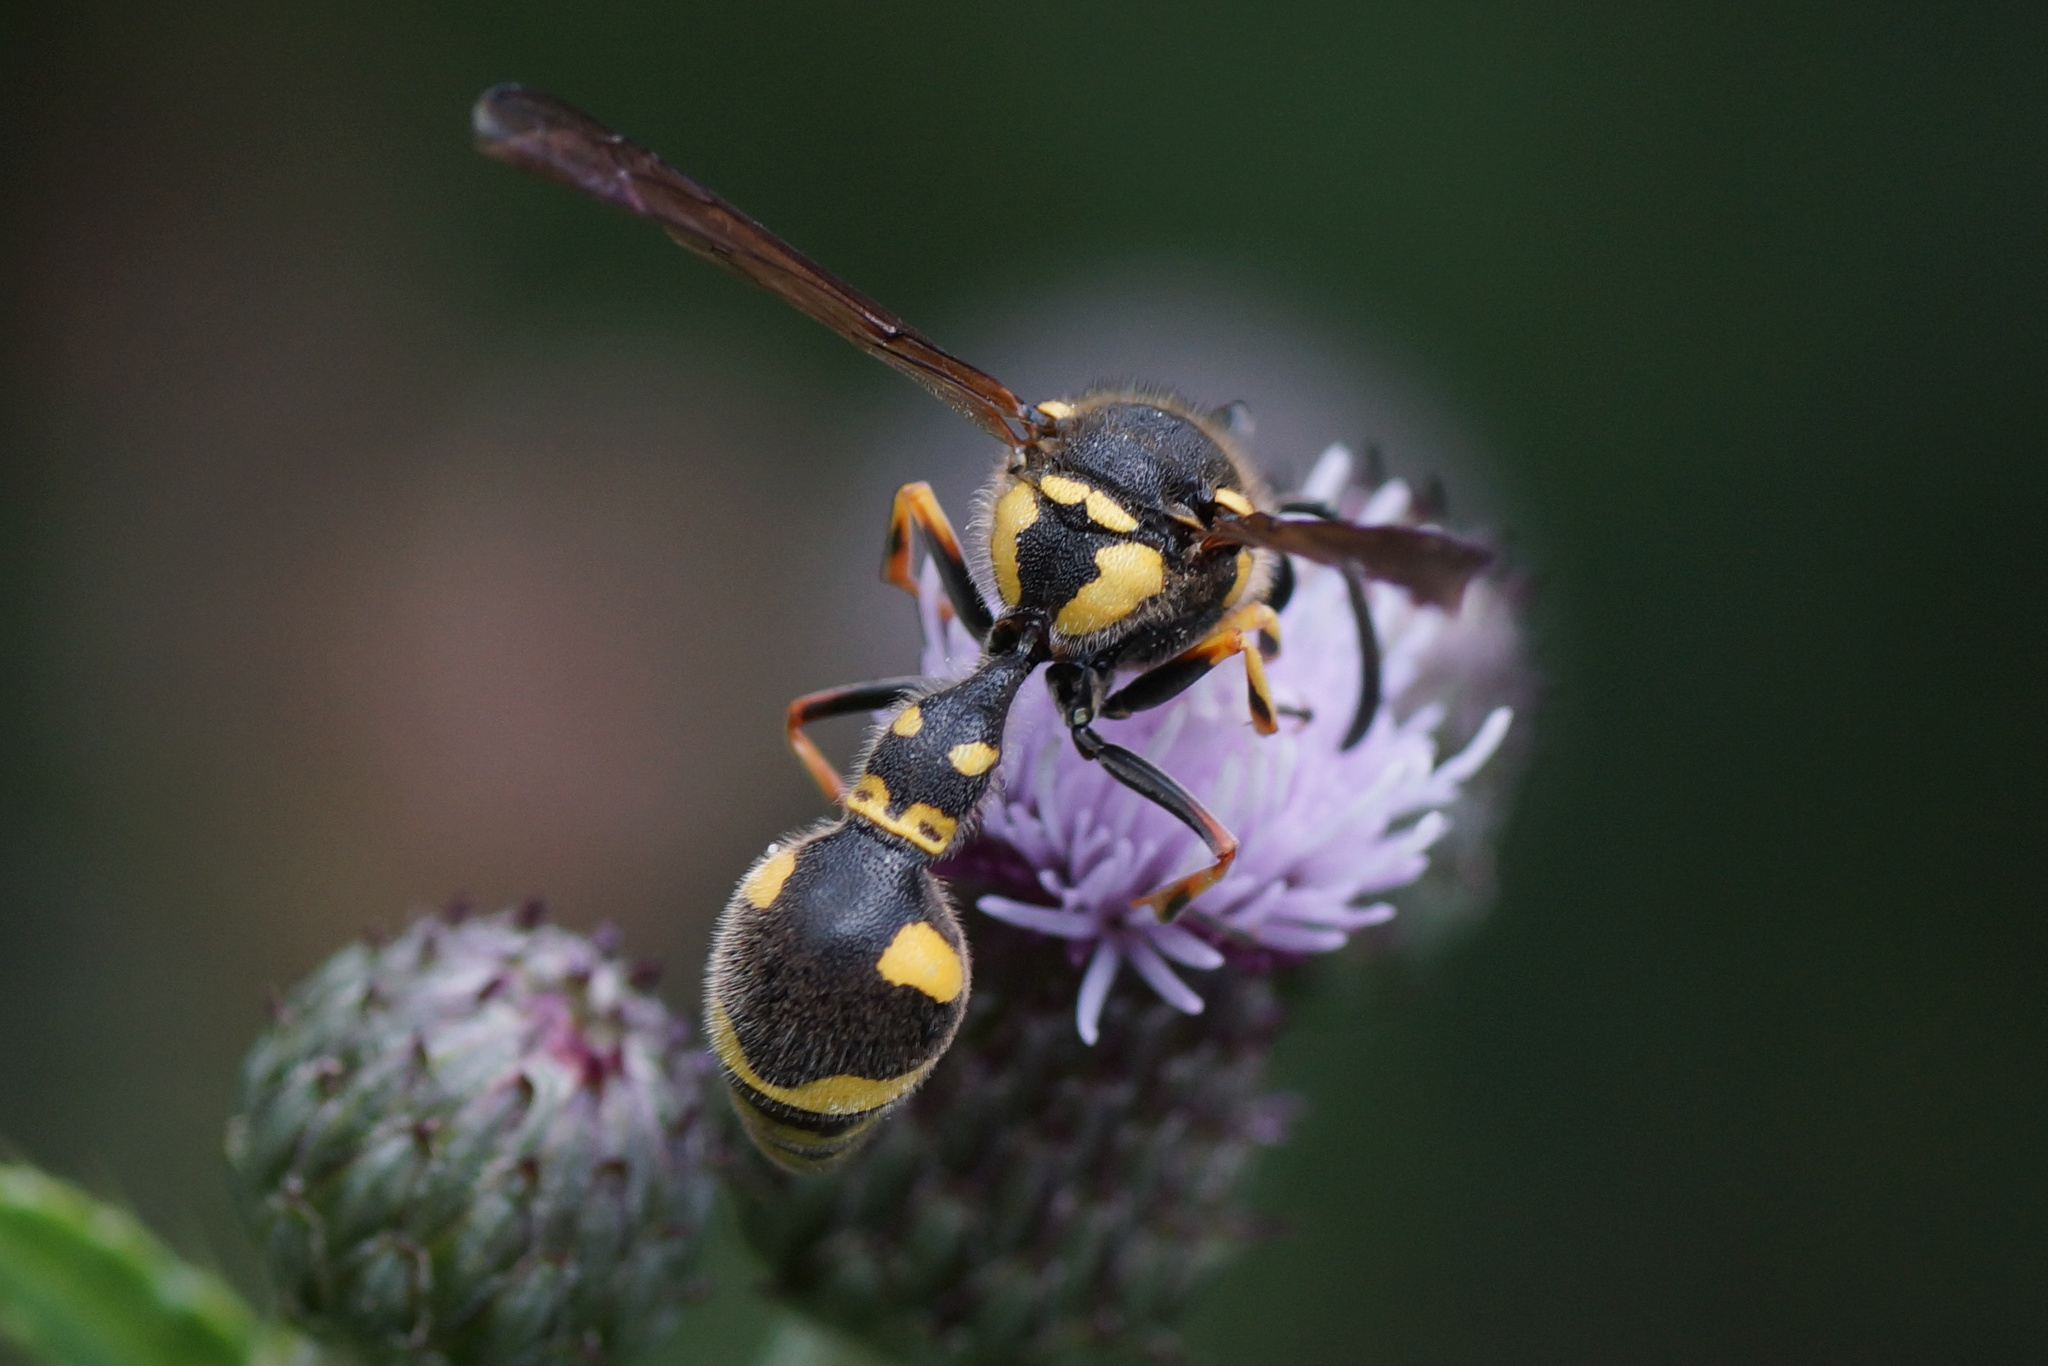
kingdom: Animalia
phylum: Arthropoda
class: Insecta
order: Hymenoptera
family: Vespidae
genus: Eumenes
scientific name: Eumenes pedunculatus
